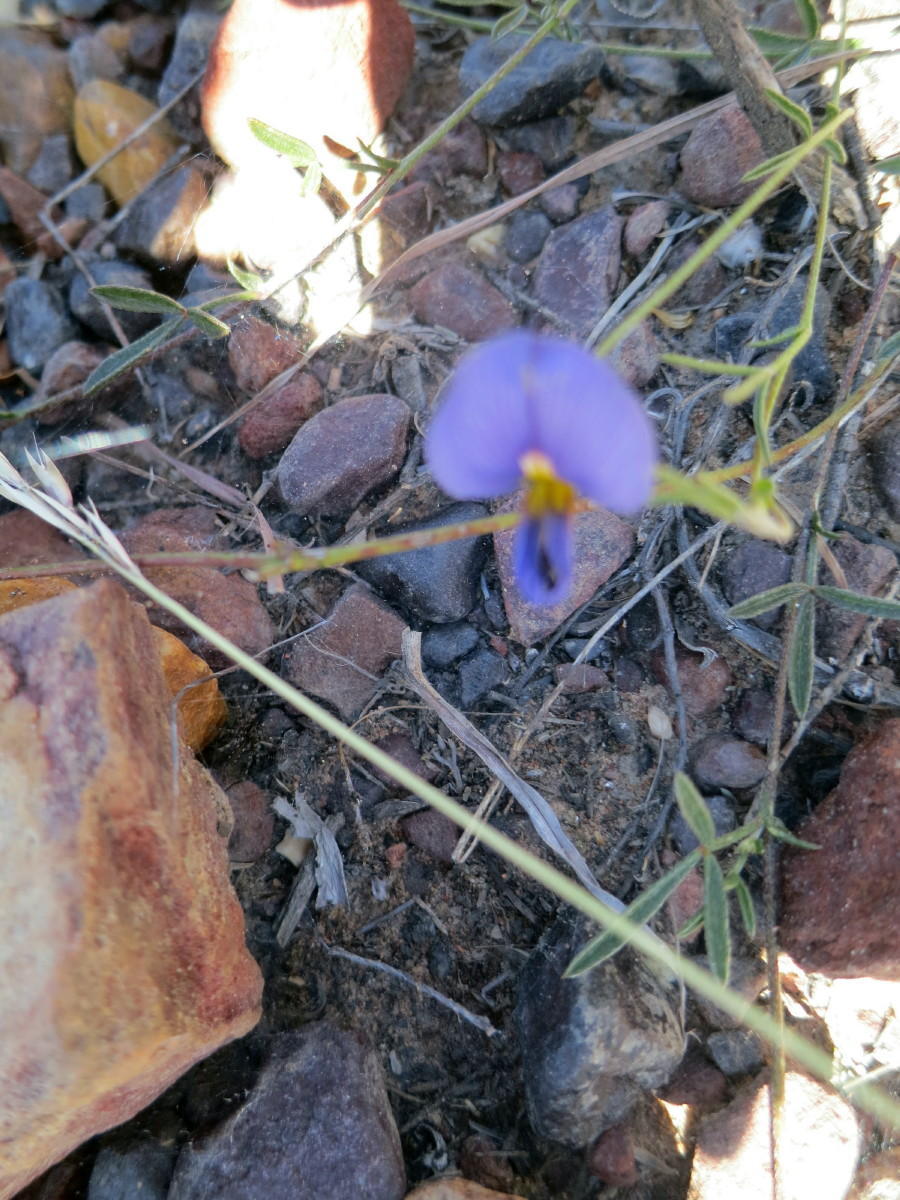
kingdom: Plantae
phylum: Tracheophyta
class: Magnoliopsida
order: Fabales
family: Fabaceae
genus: Lotononis
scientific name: Lotononis filiformis
